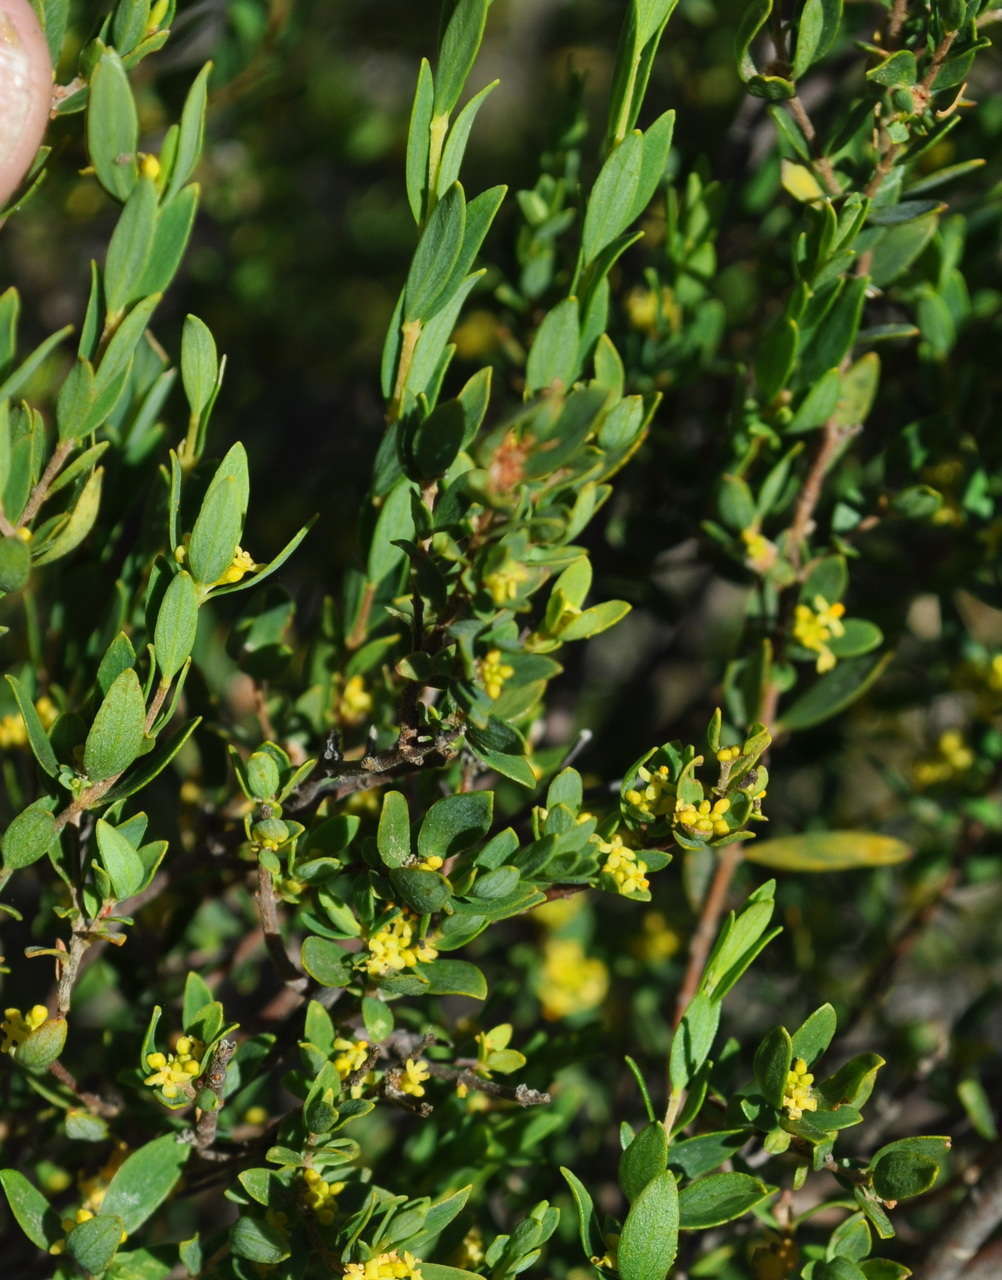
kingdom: Plantae
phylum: Tracheophyta
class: Magnoliopsida
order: Malvales
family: Thymelaeaceae
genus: Pimelea
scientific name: Pimelea hewardiana
